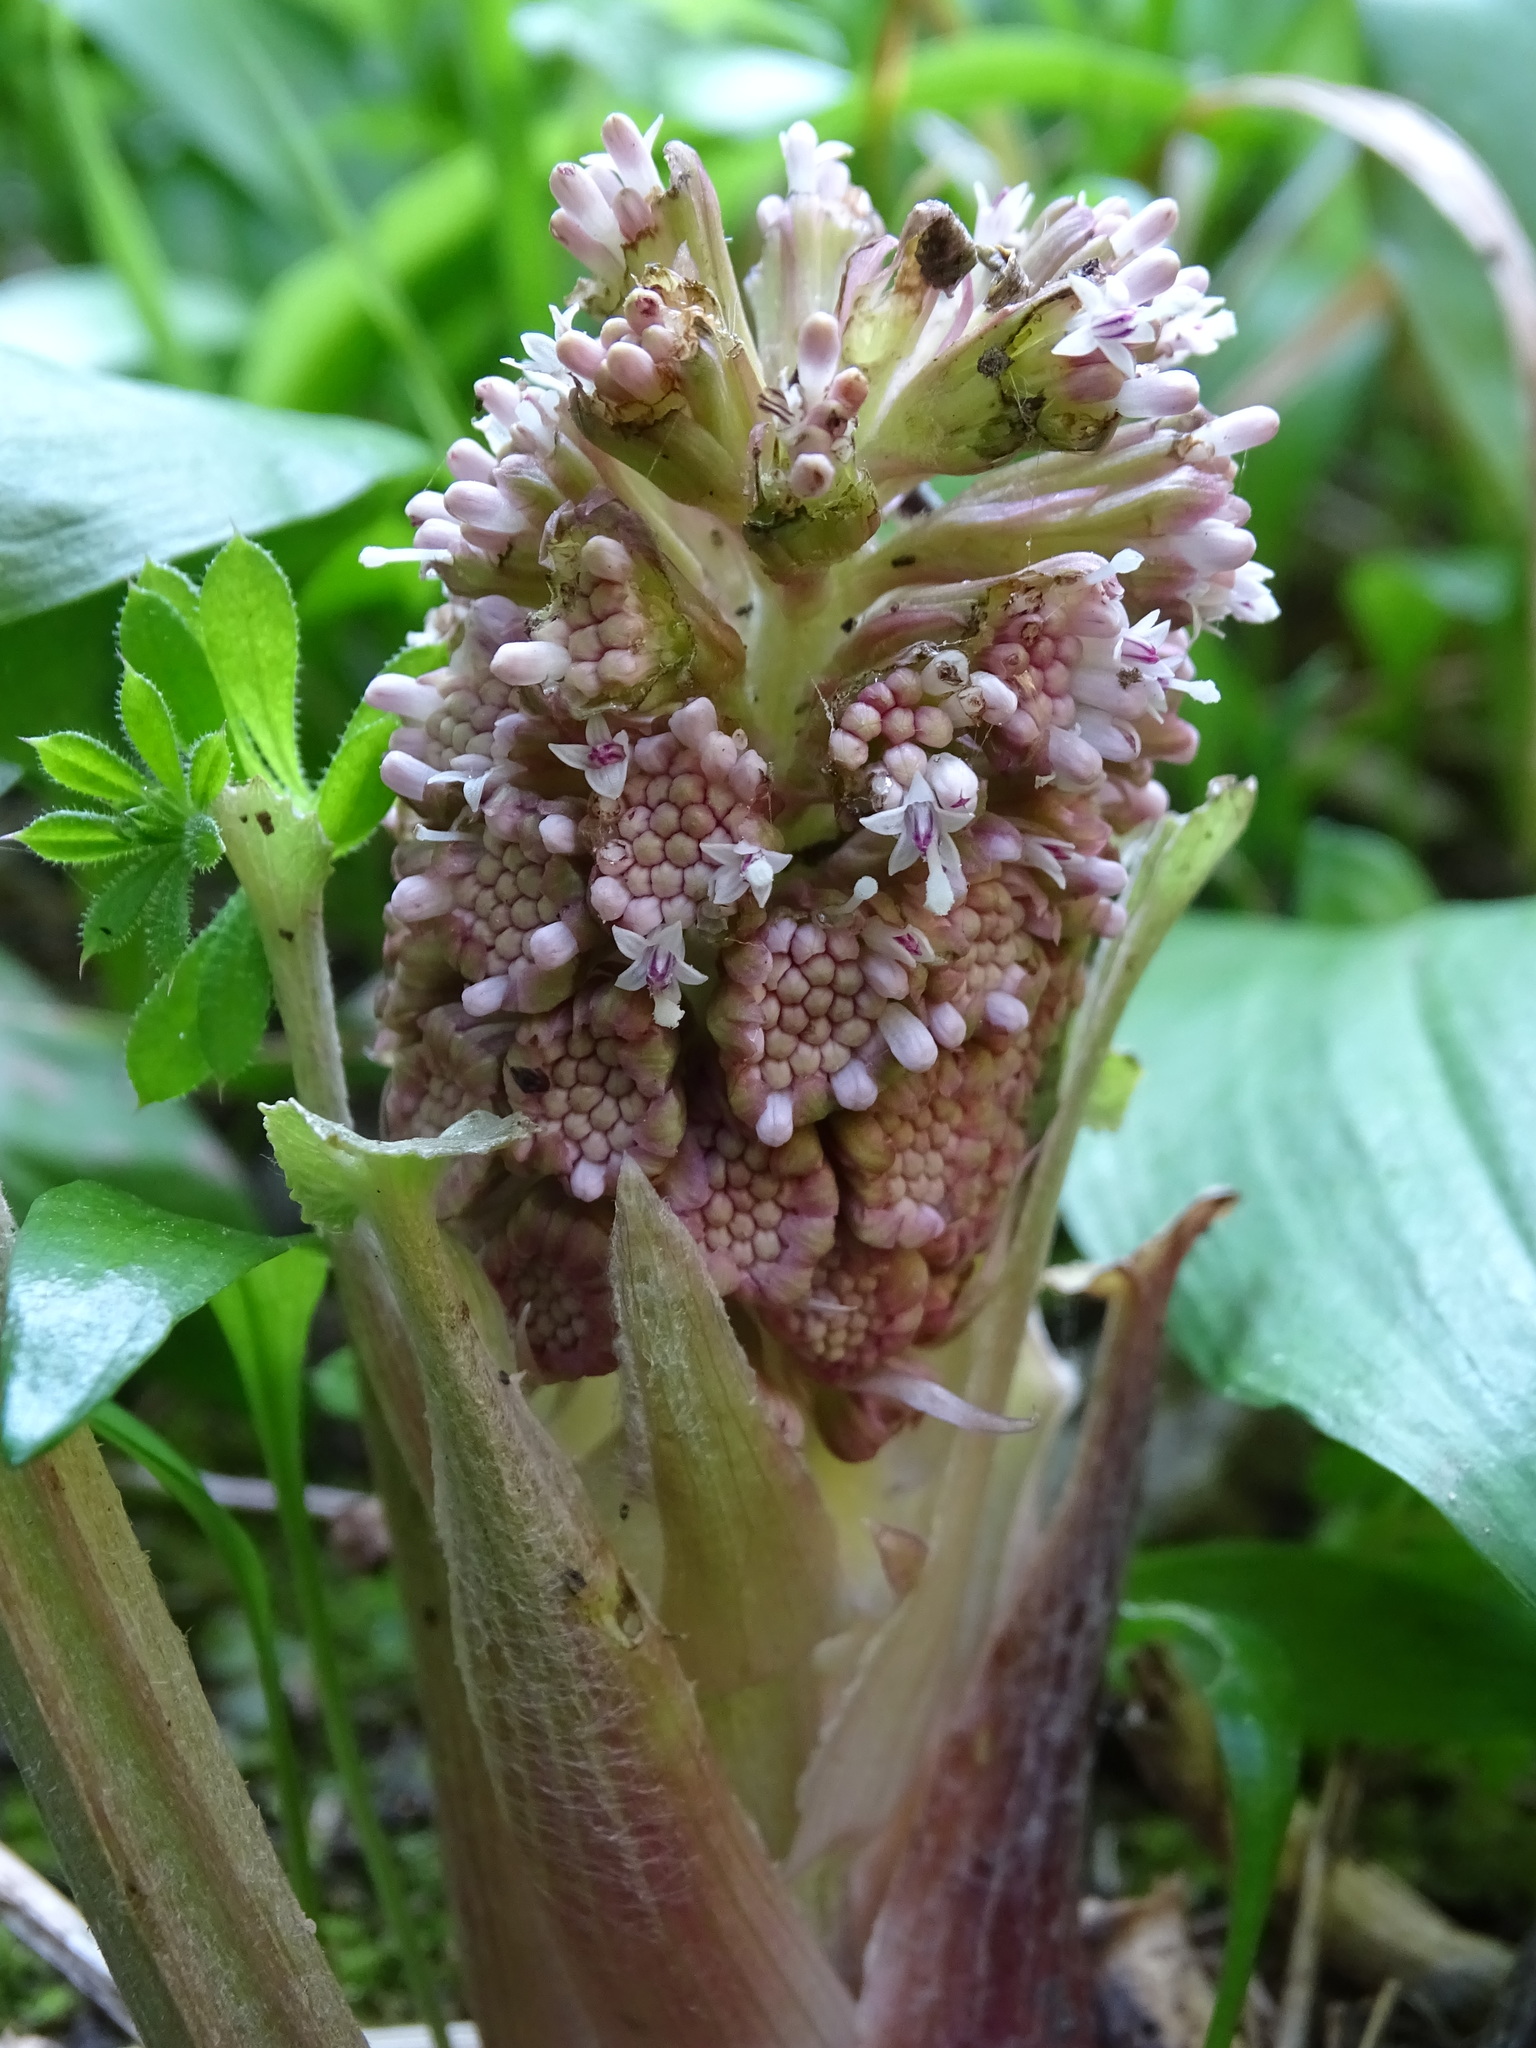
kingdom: Plantae
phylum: Tracheophyta
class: Magnoliopsida
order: Asterales
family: Asteraceae
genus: Petasites
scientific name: Petasites hybridus
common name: Butterbur
